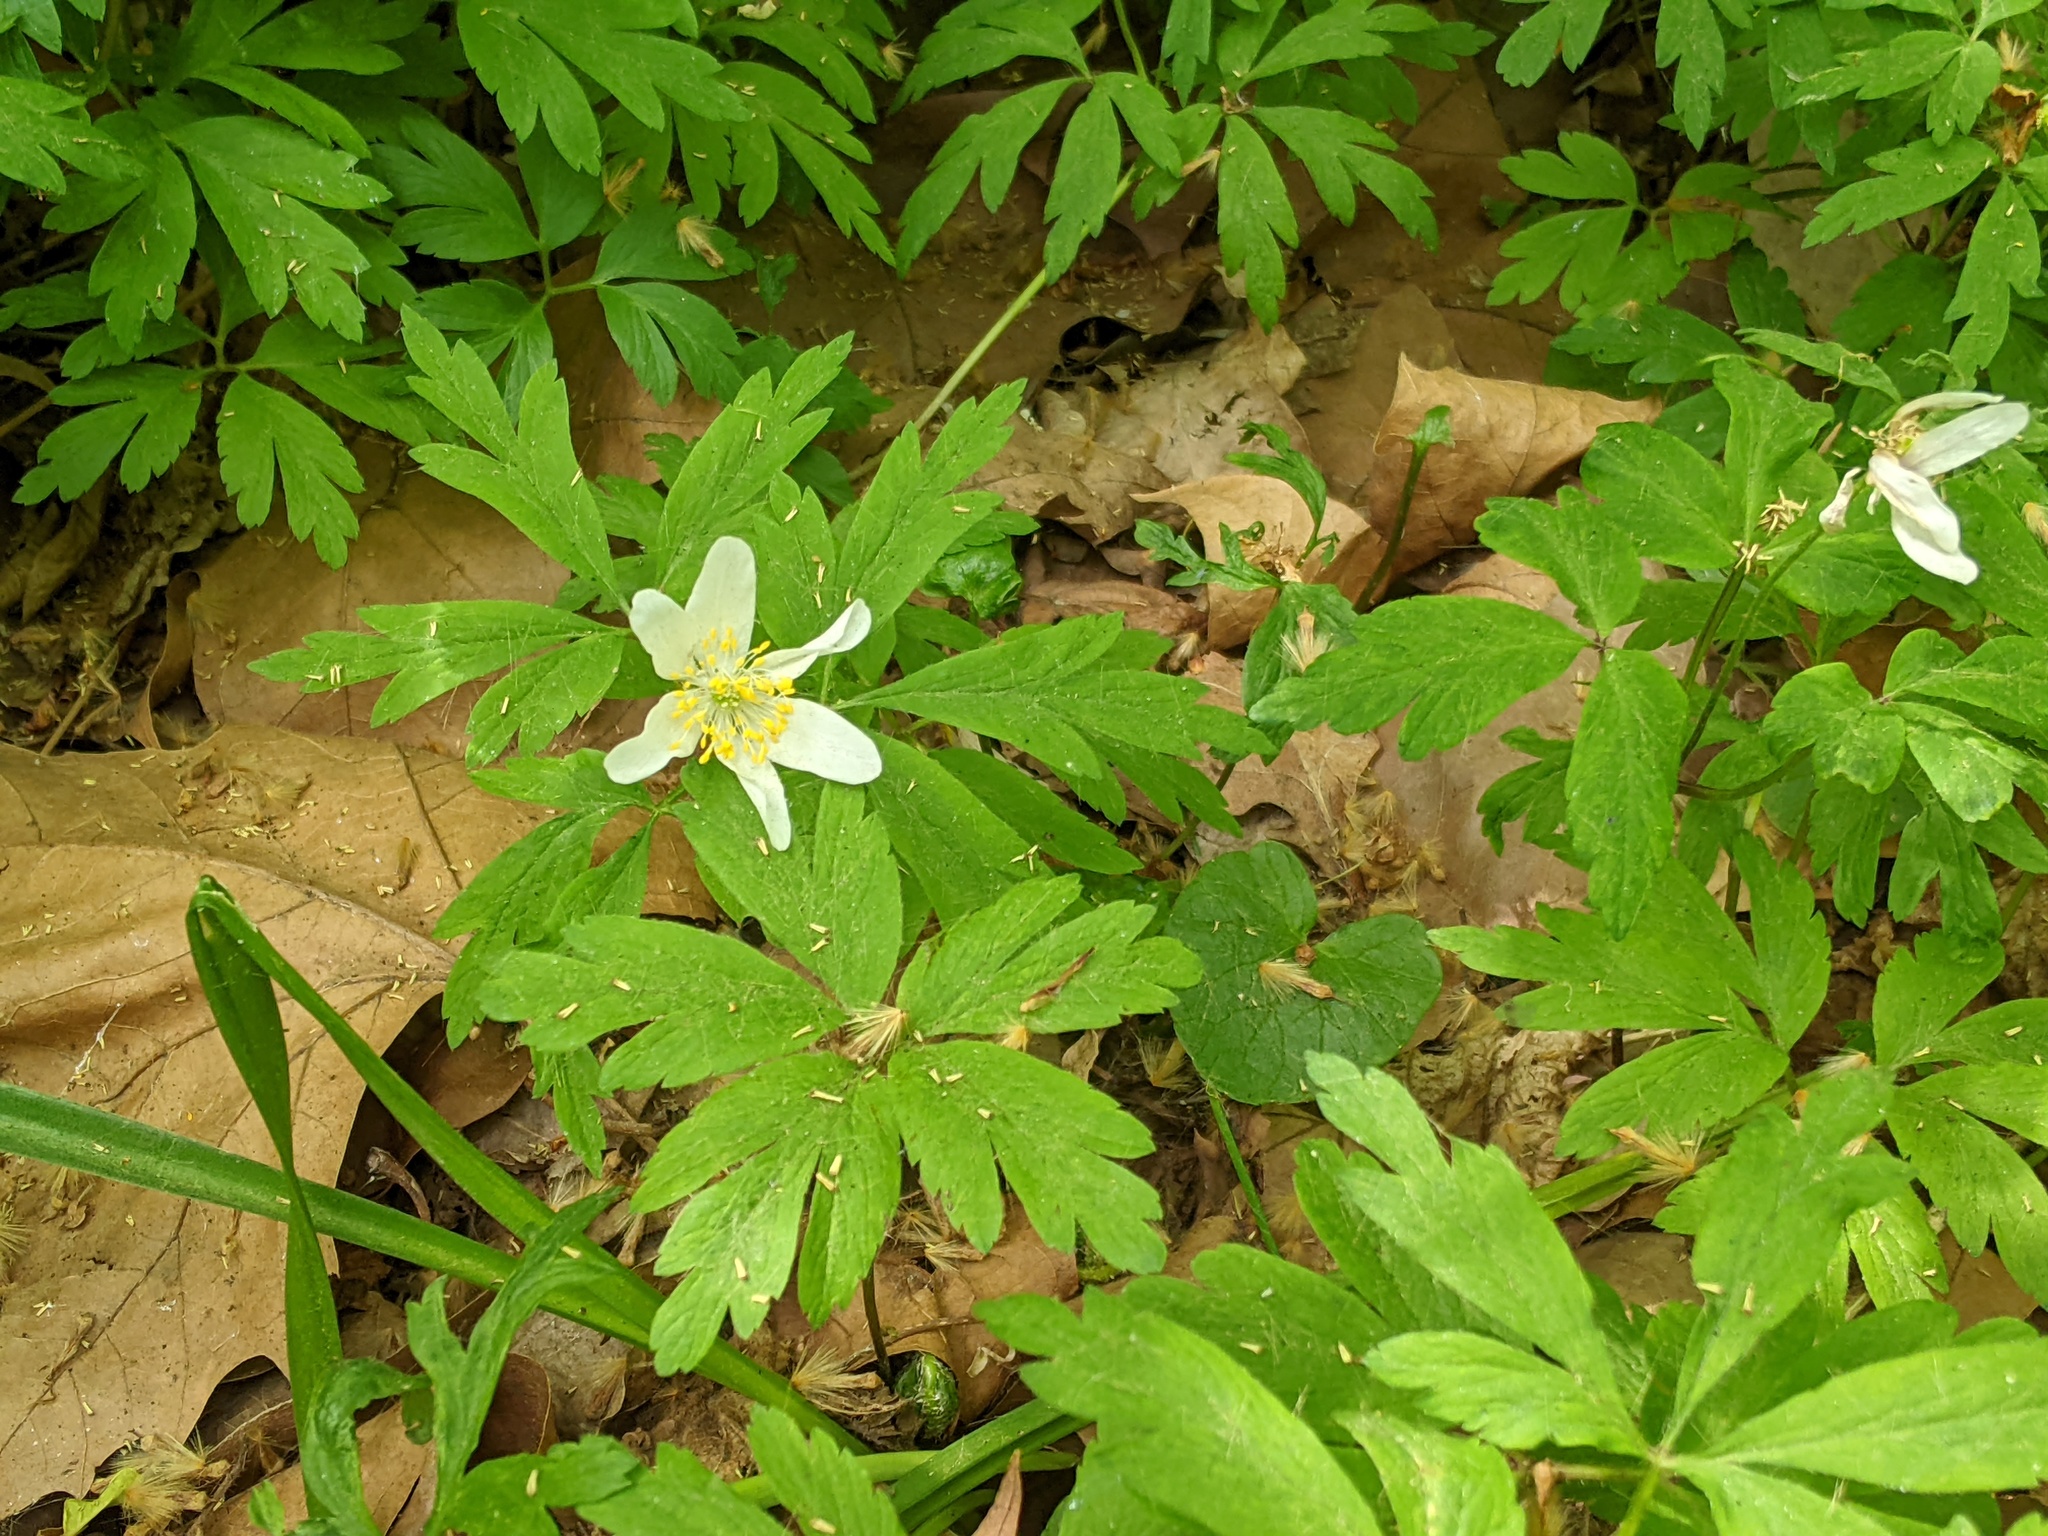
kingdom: Plantae
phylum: Tracheophyta
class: Magnoliopsida
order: Ranunculales
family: Ranunculaceae
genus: Anemone
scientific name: Anemone nemorosa
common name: Wood anemone
